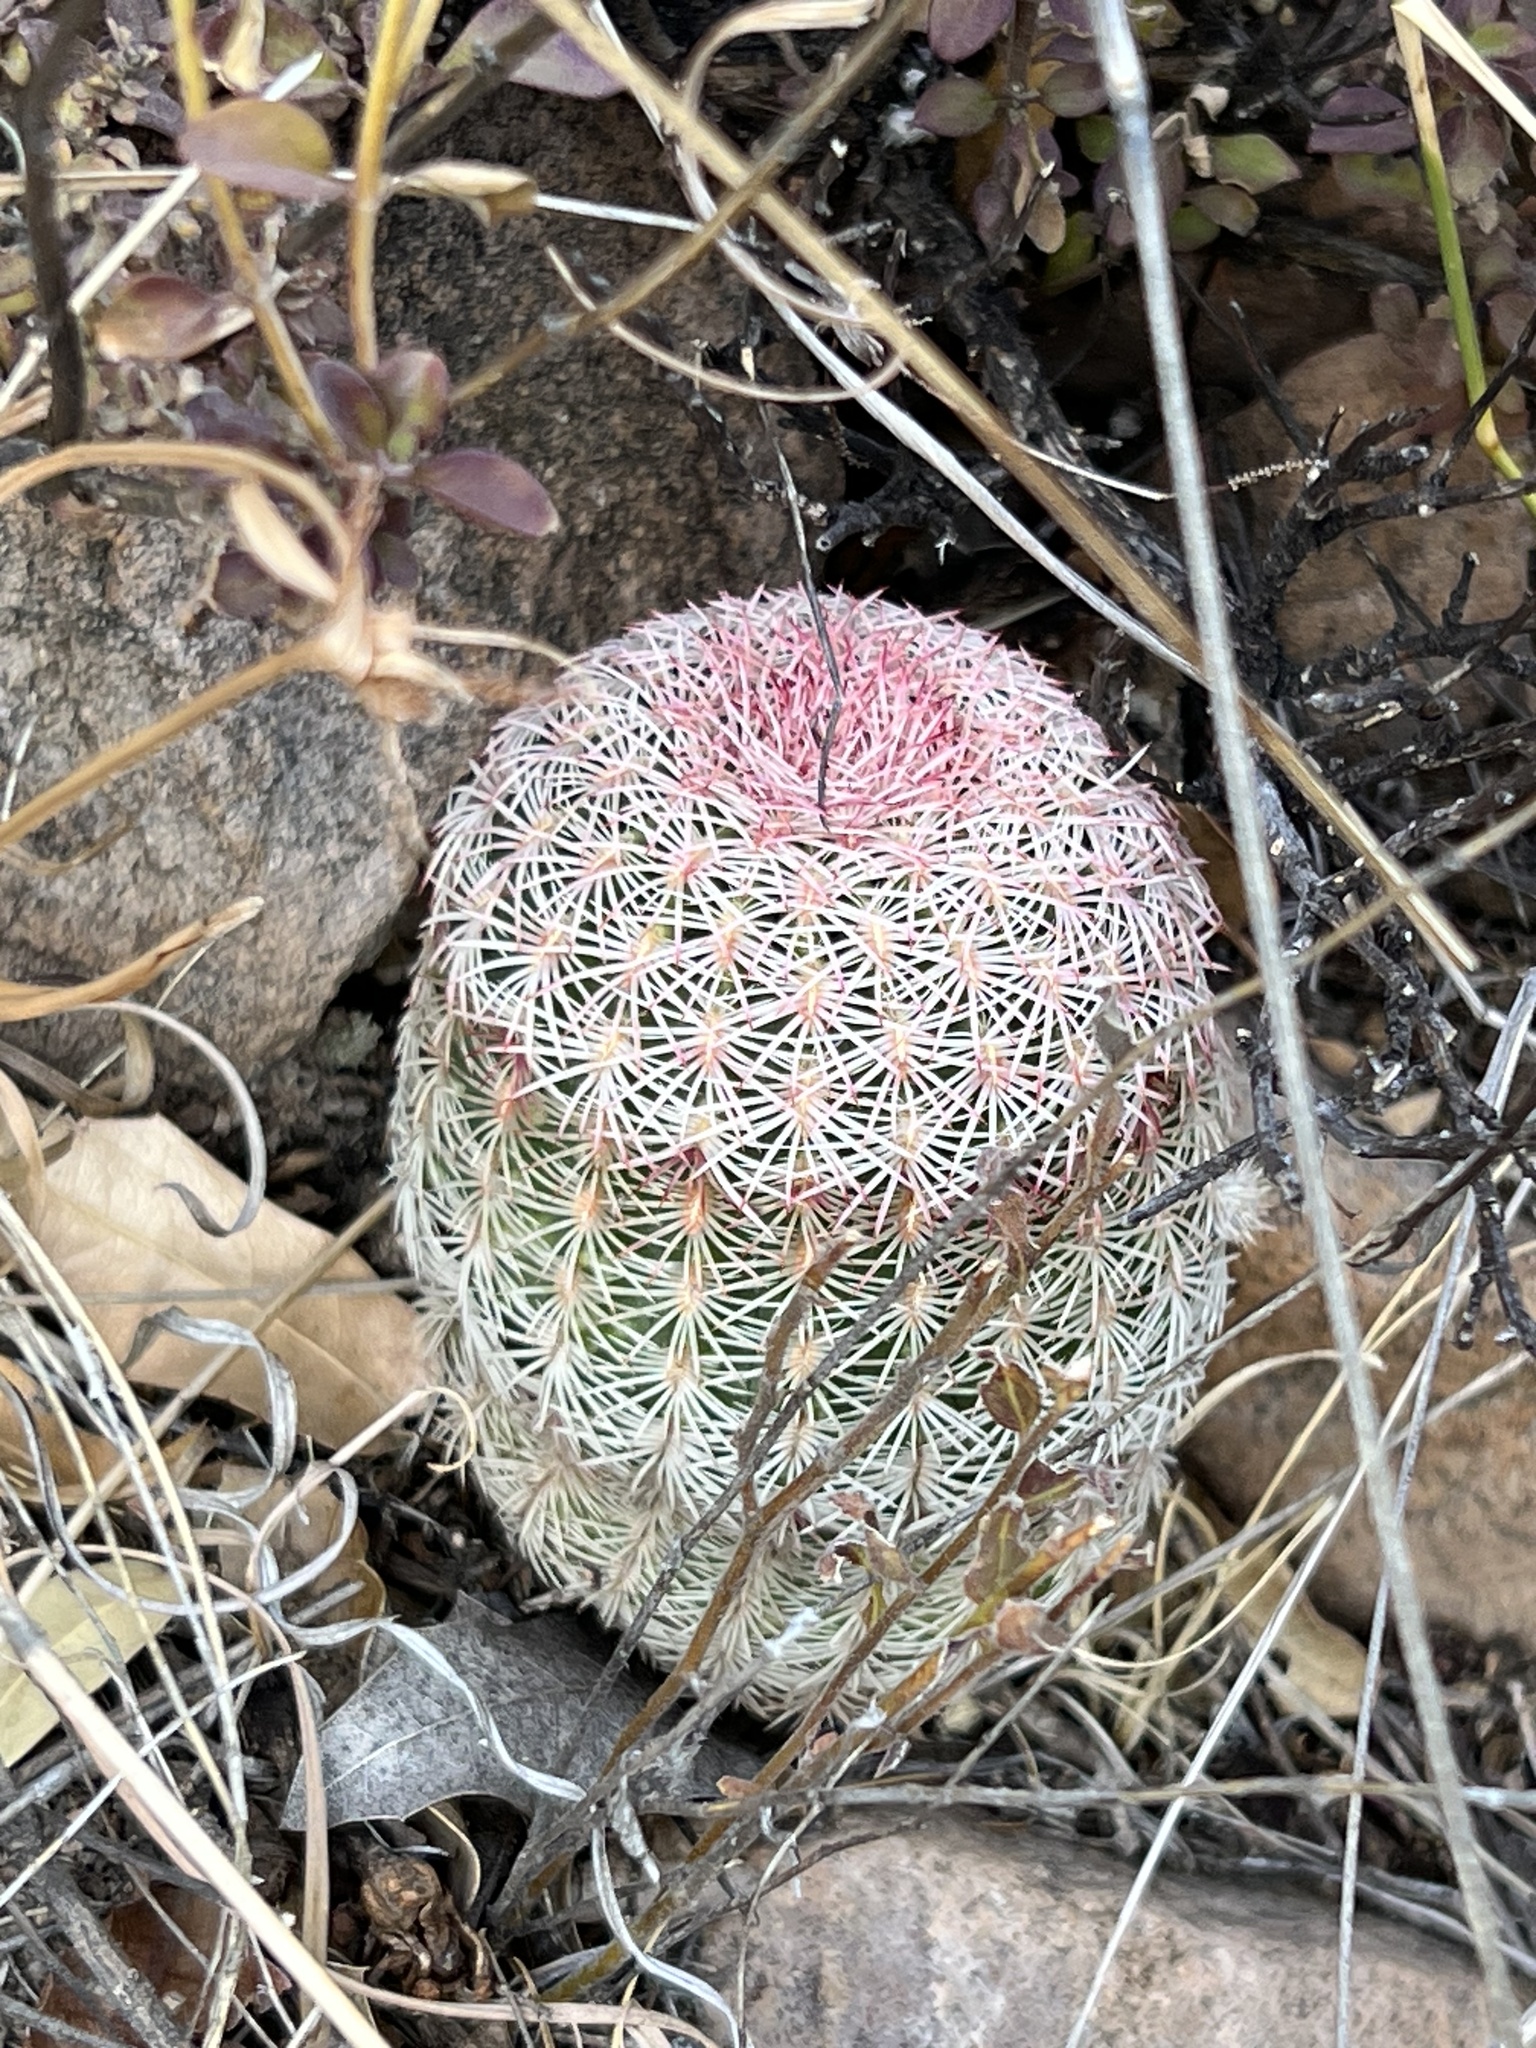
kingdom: Plantae
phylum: Tracheophyta
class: Magnoliopsida
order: Caryophyllales
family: Cactaceae
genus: Echinocereus
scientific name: Echinocereus rigidissimus
